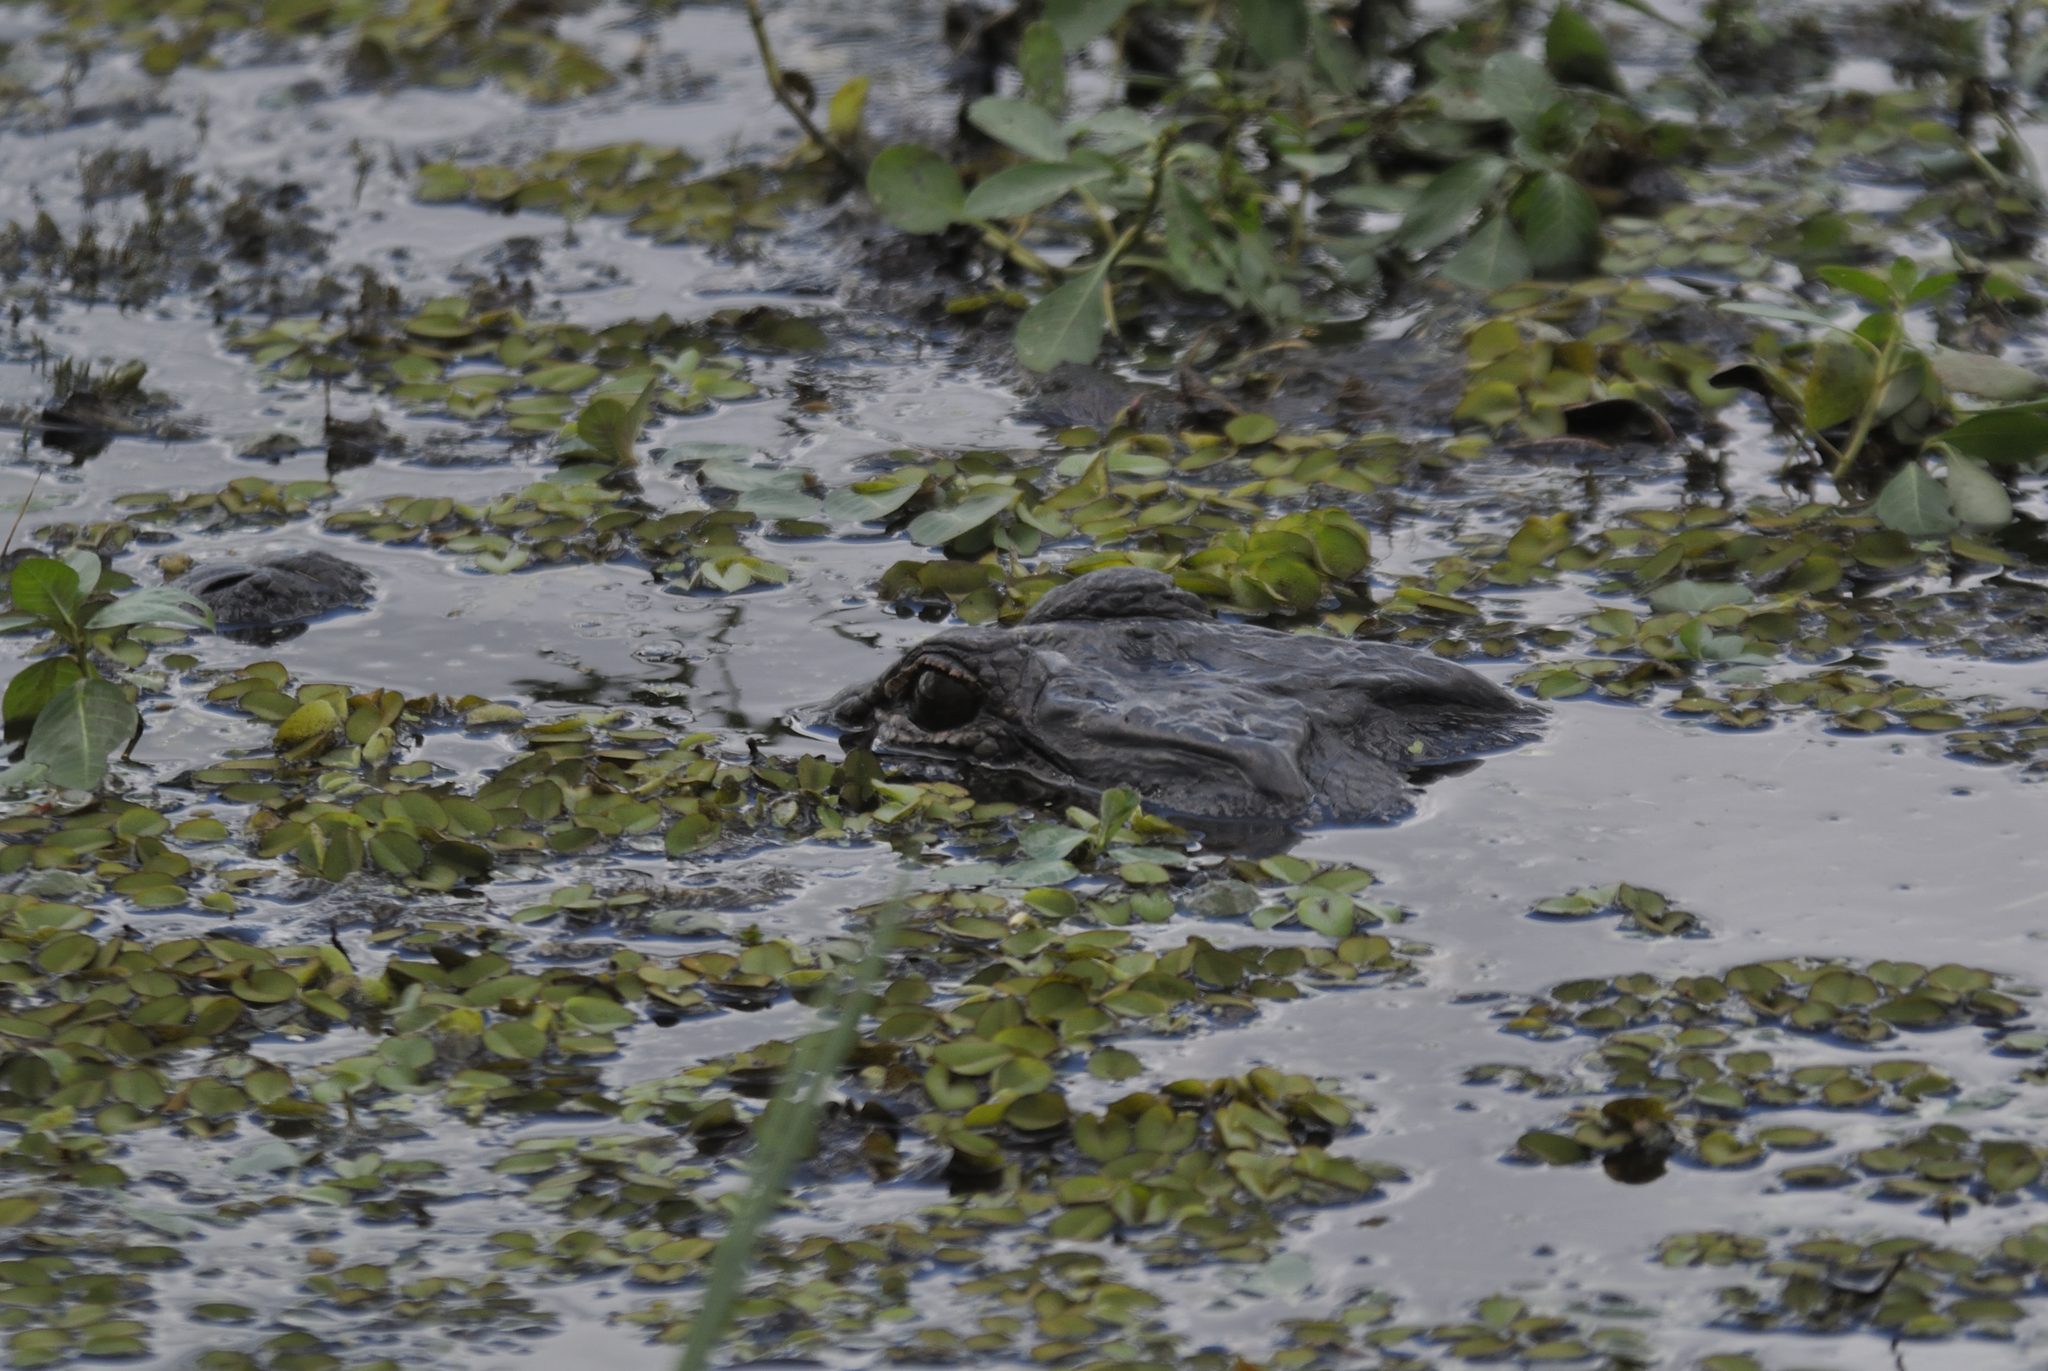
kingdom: Animalia
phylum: Chordata
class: Crocodylia
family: Alligatoridae
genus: Alligator
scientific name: Alligator mississippiensis
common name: American alligator
